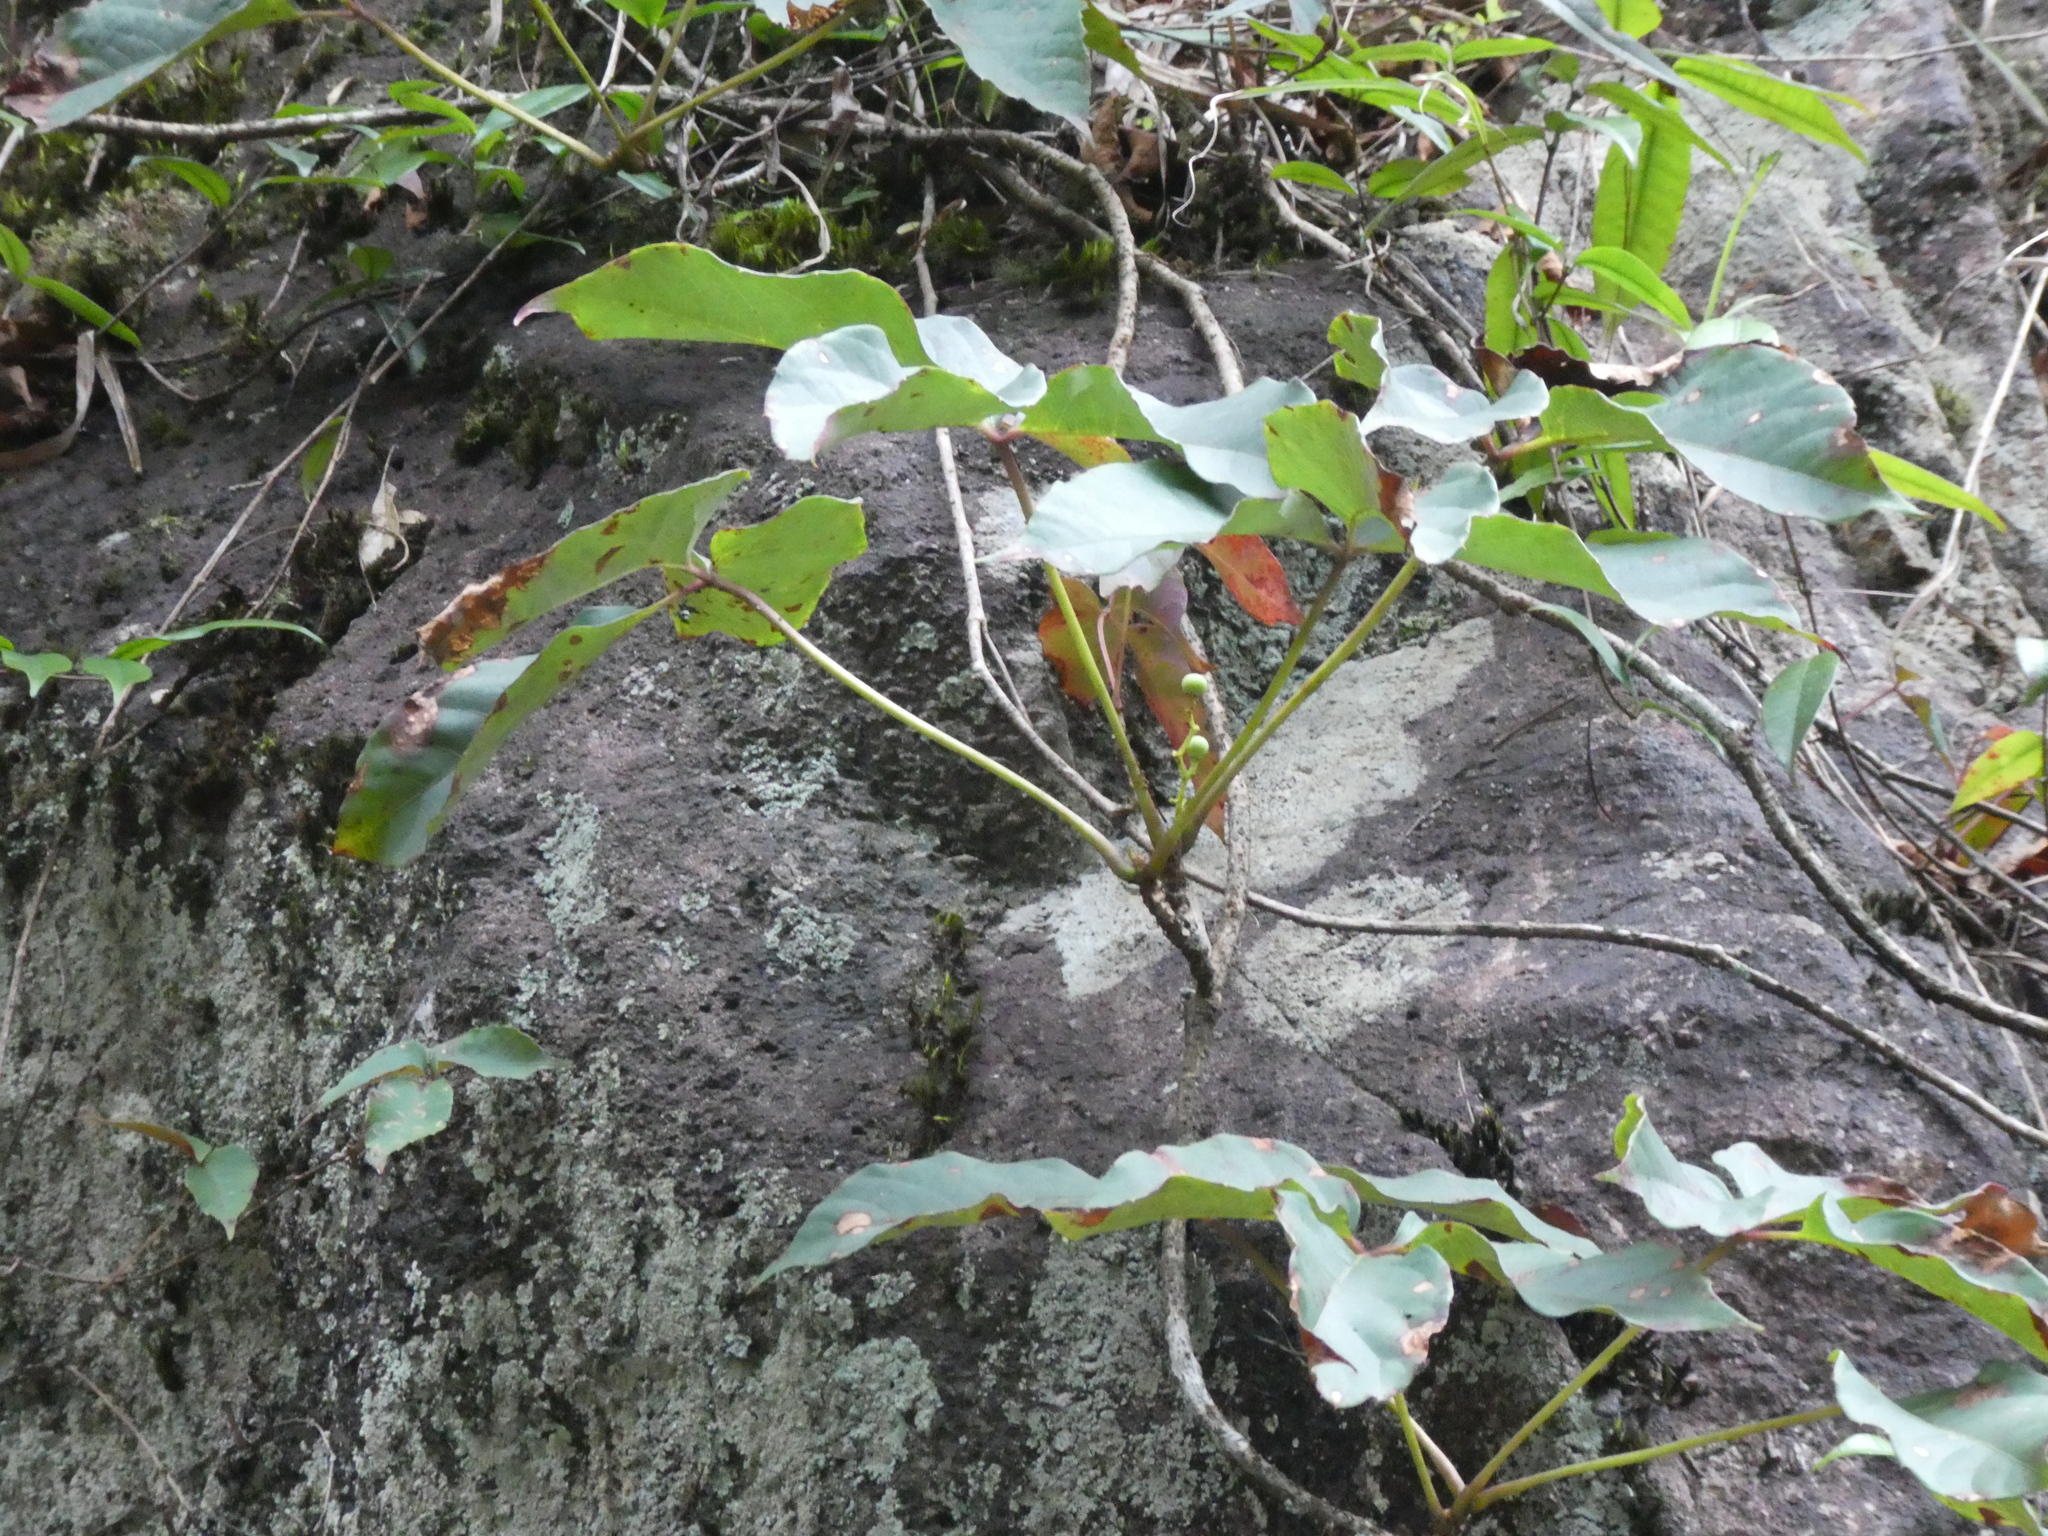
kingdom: Plantae
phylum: Tracheophyta
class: Magnoliopsida
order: Vitales
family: Vitaceae
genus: Parthenocissus
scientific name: Parthenocissus dalzielii
